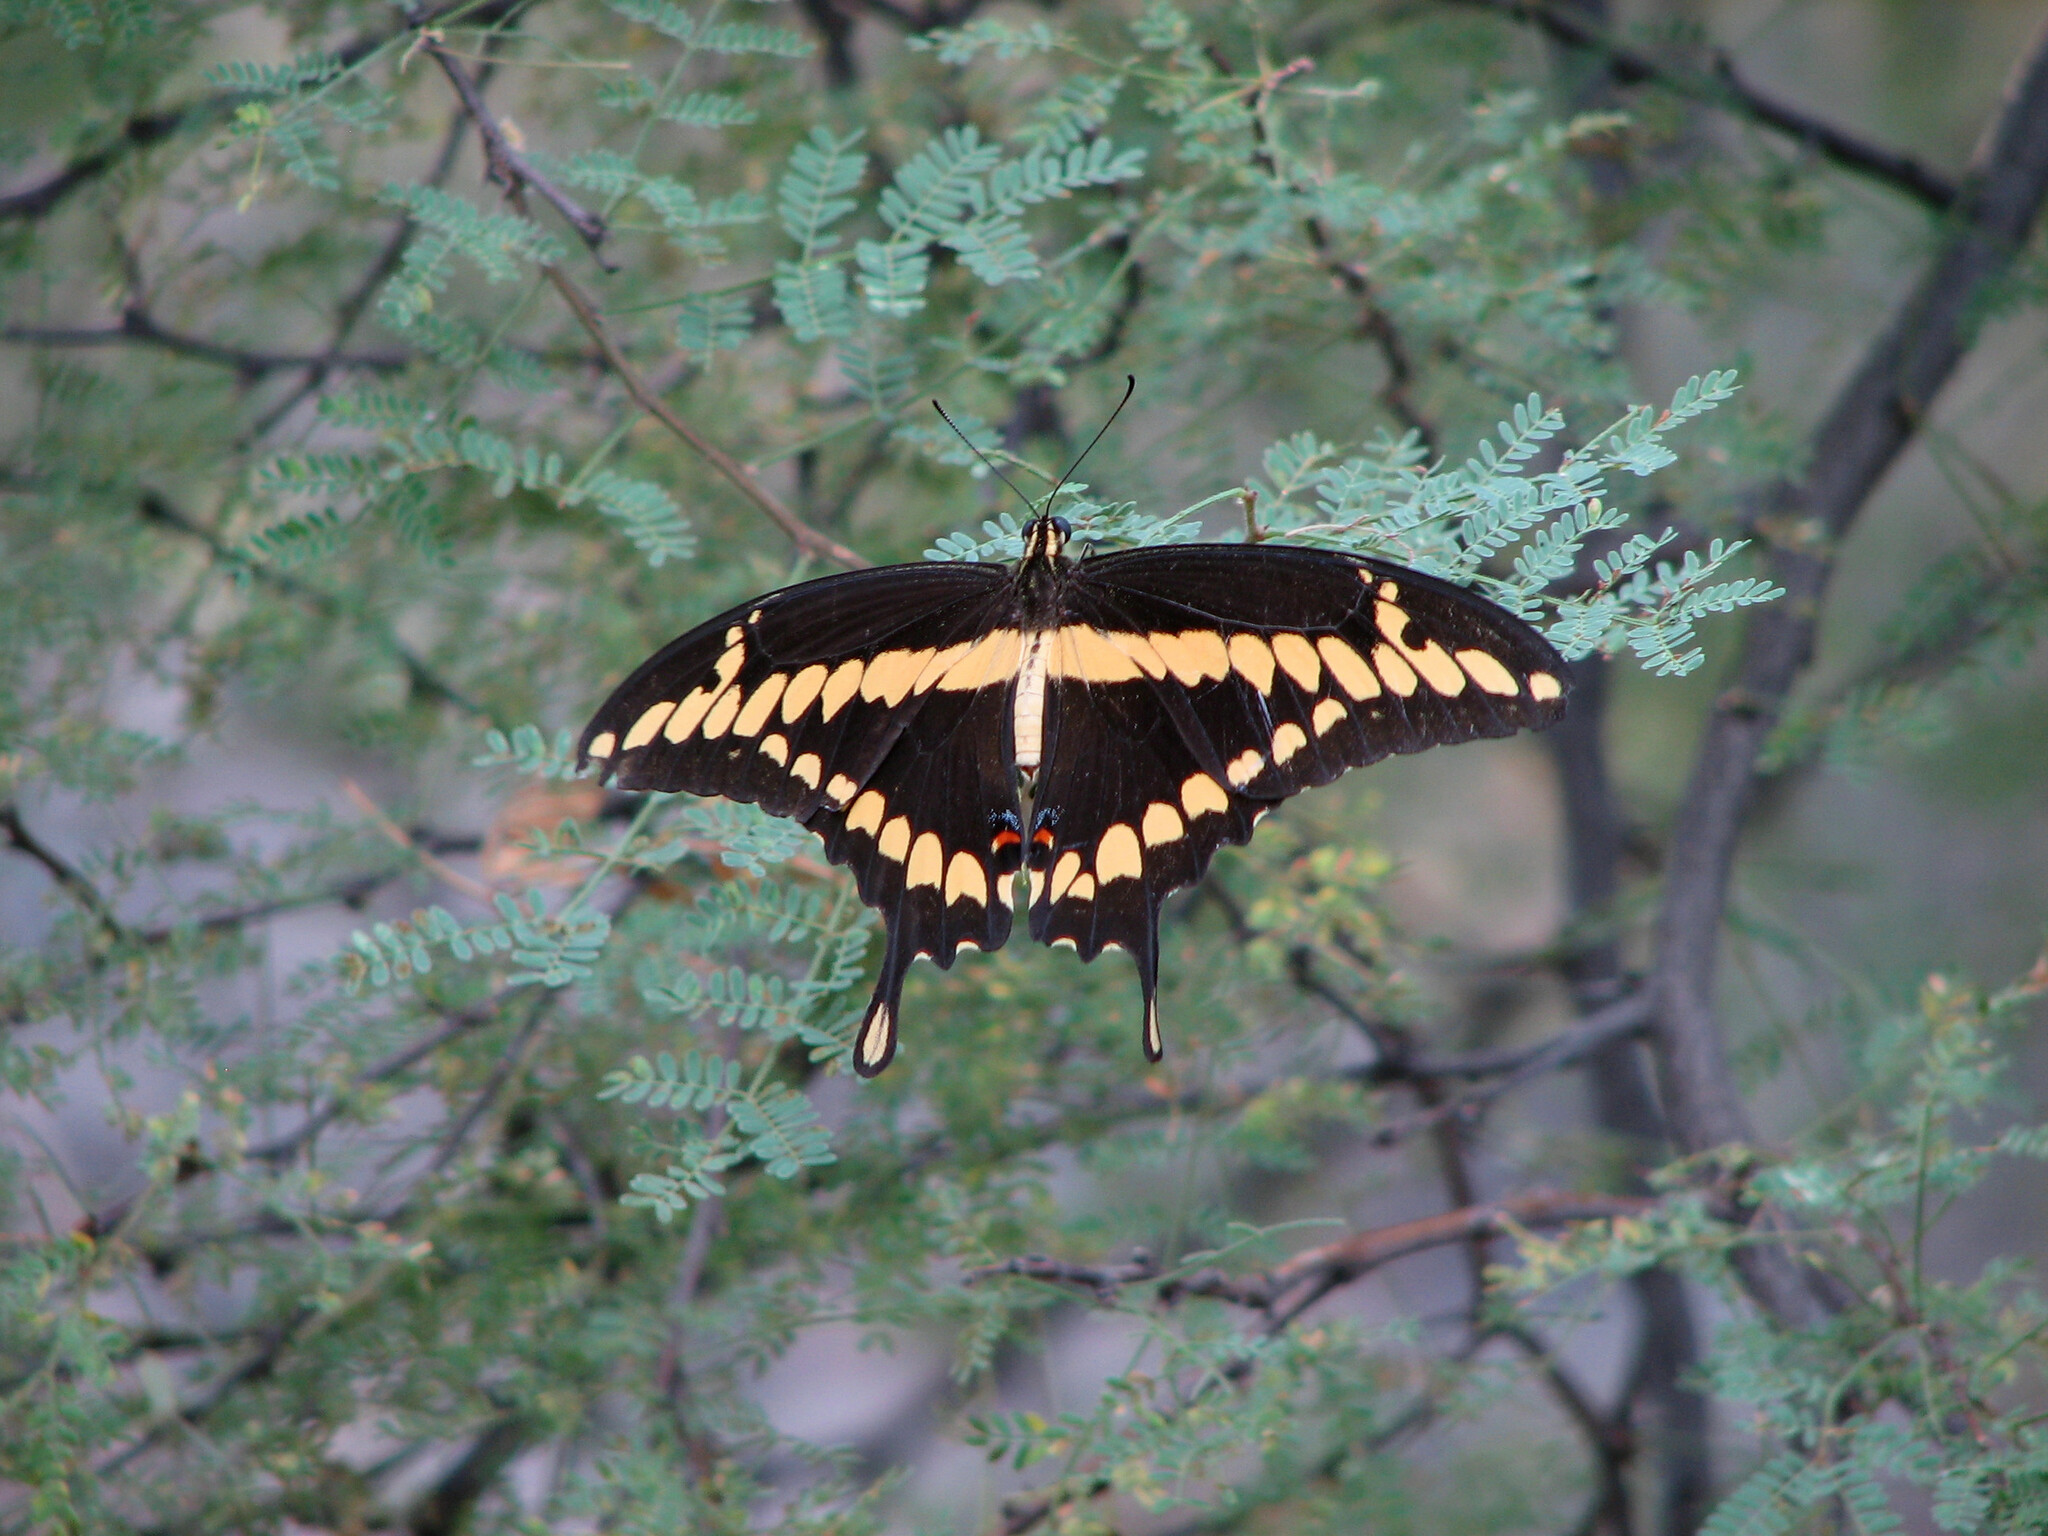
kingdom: Animalia
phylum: Arthropoda
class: Insecta
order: Lepidoptera
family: Papilionidae
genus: Papilio
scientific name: Papilio rumiko
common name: Western giant swallowtail
